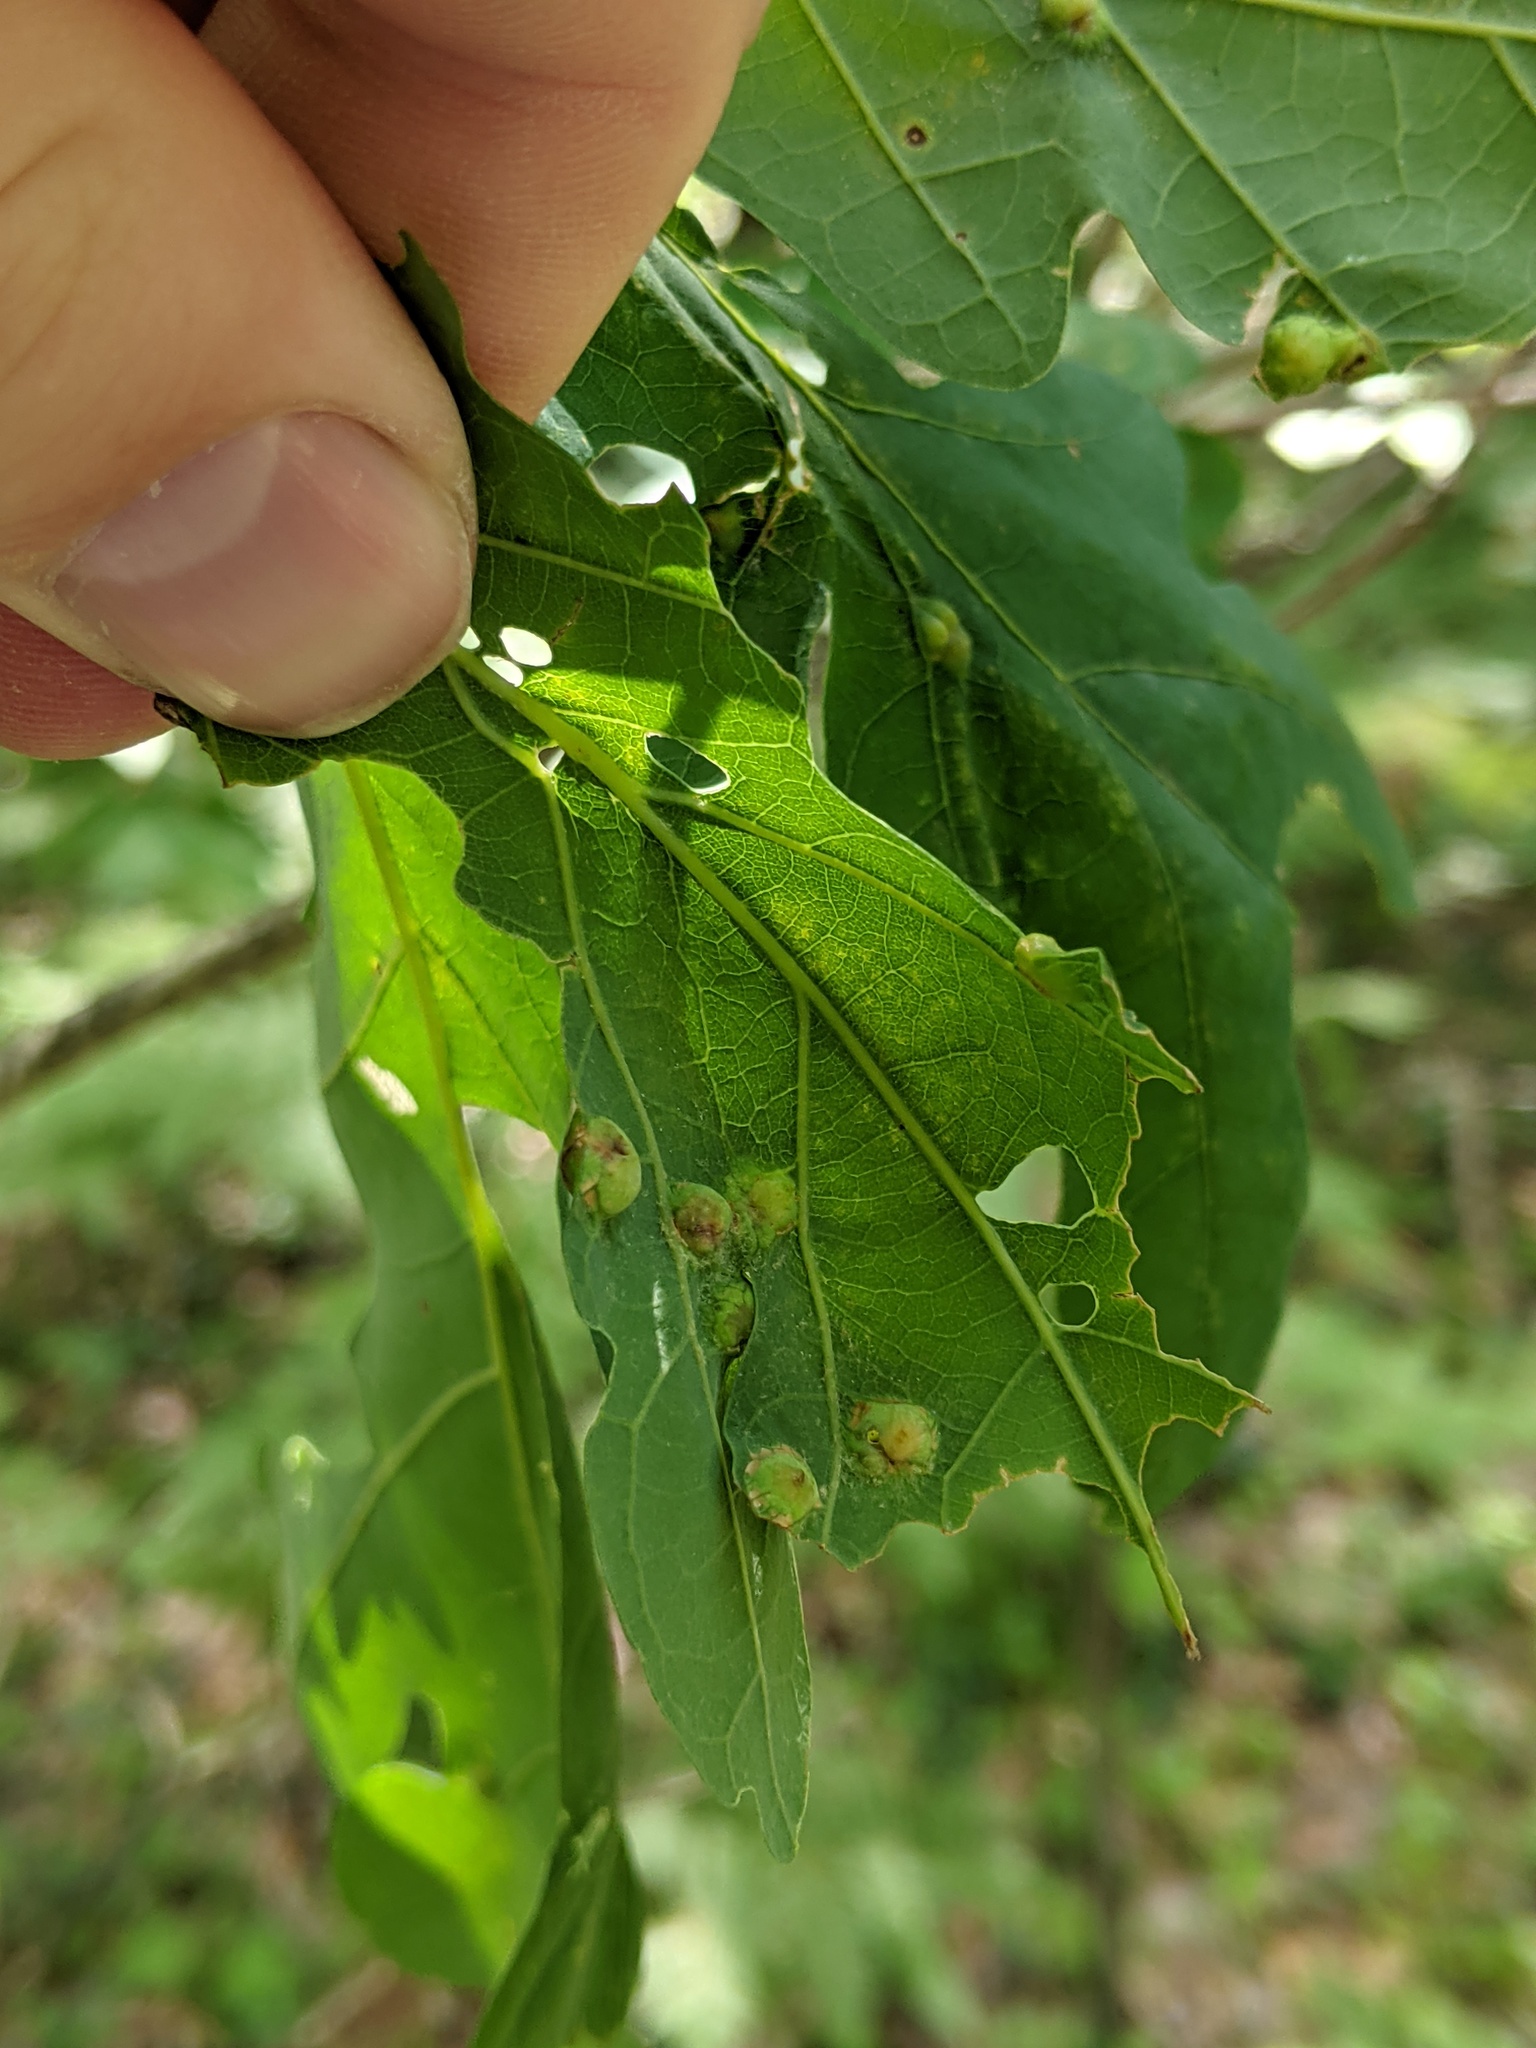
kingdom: Animalia
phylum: Arthropoda
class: Insecta
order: Hymenoptera
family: Cynipidae
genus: Callirhytis
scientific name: Callirhytis
